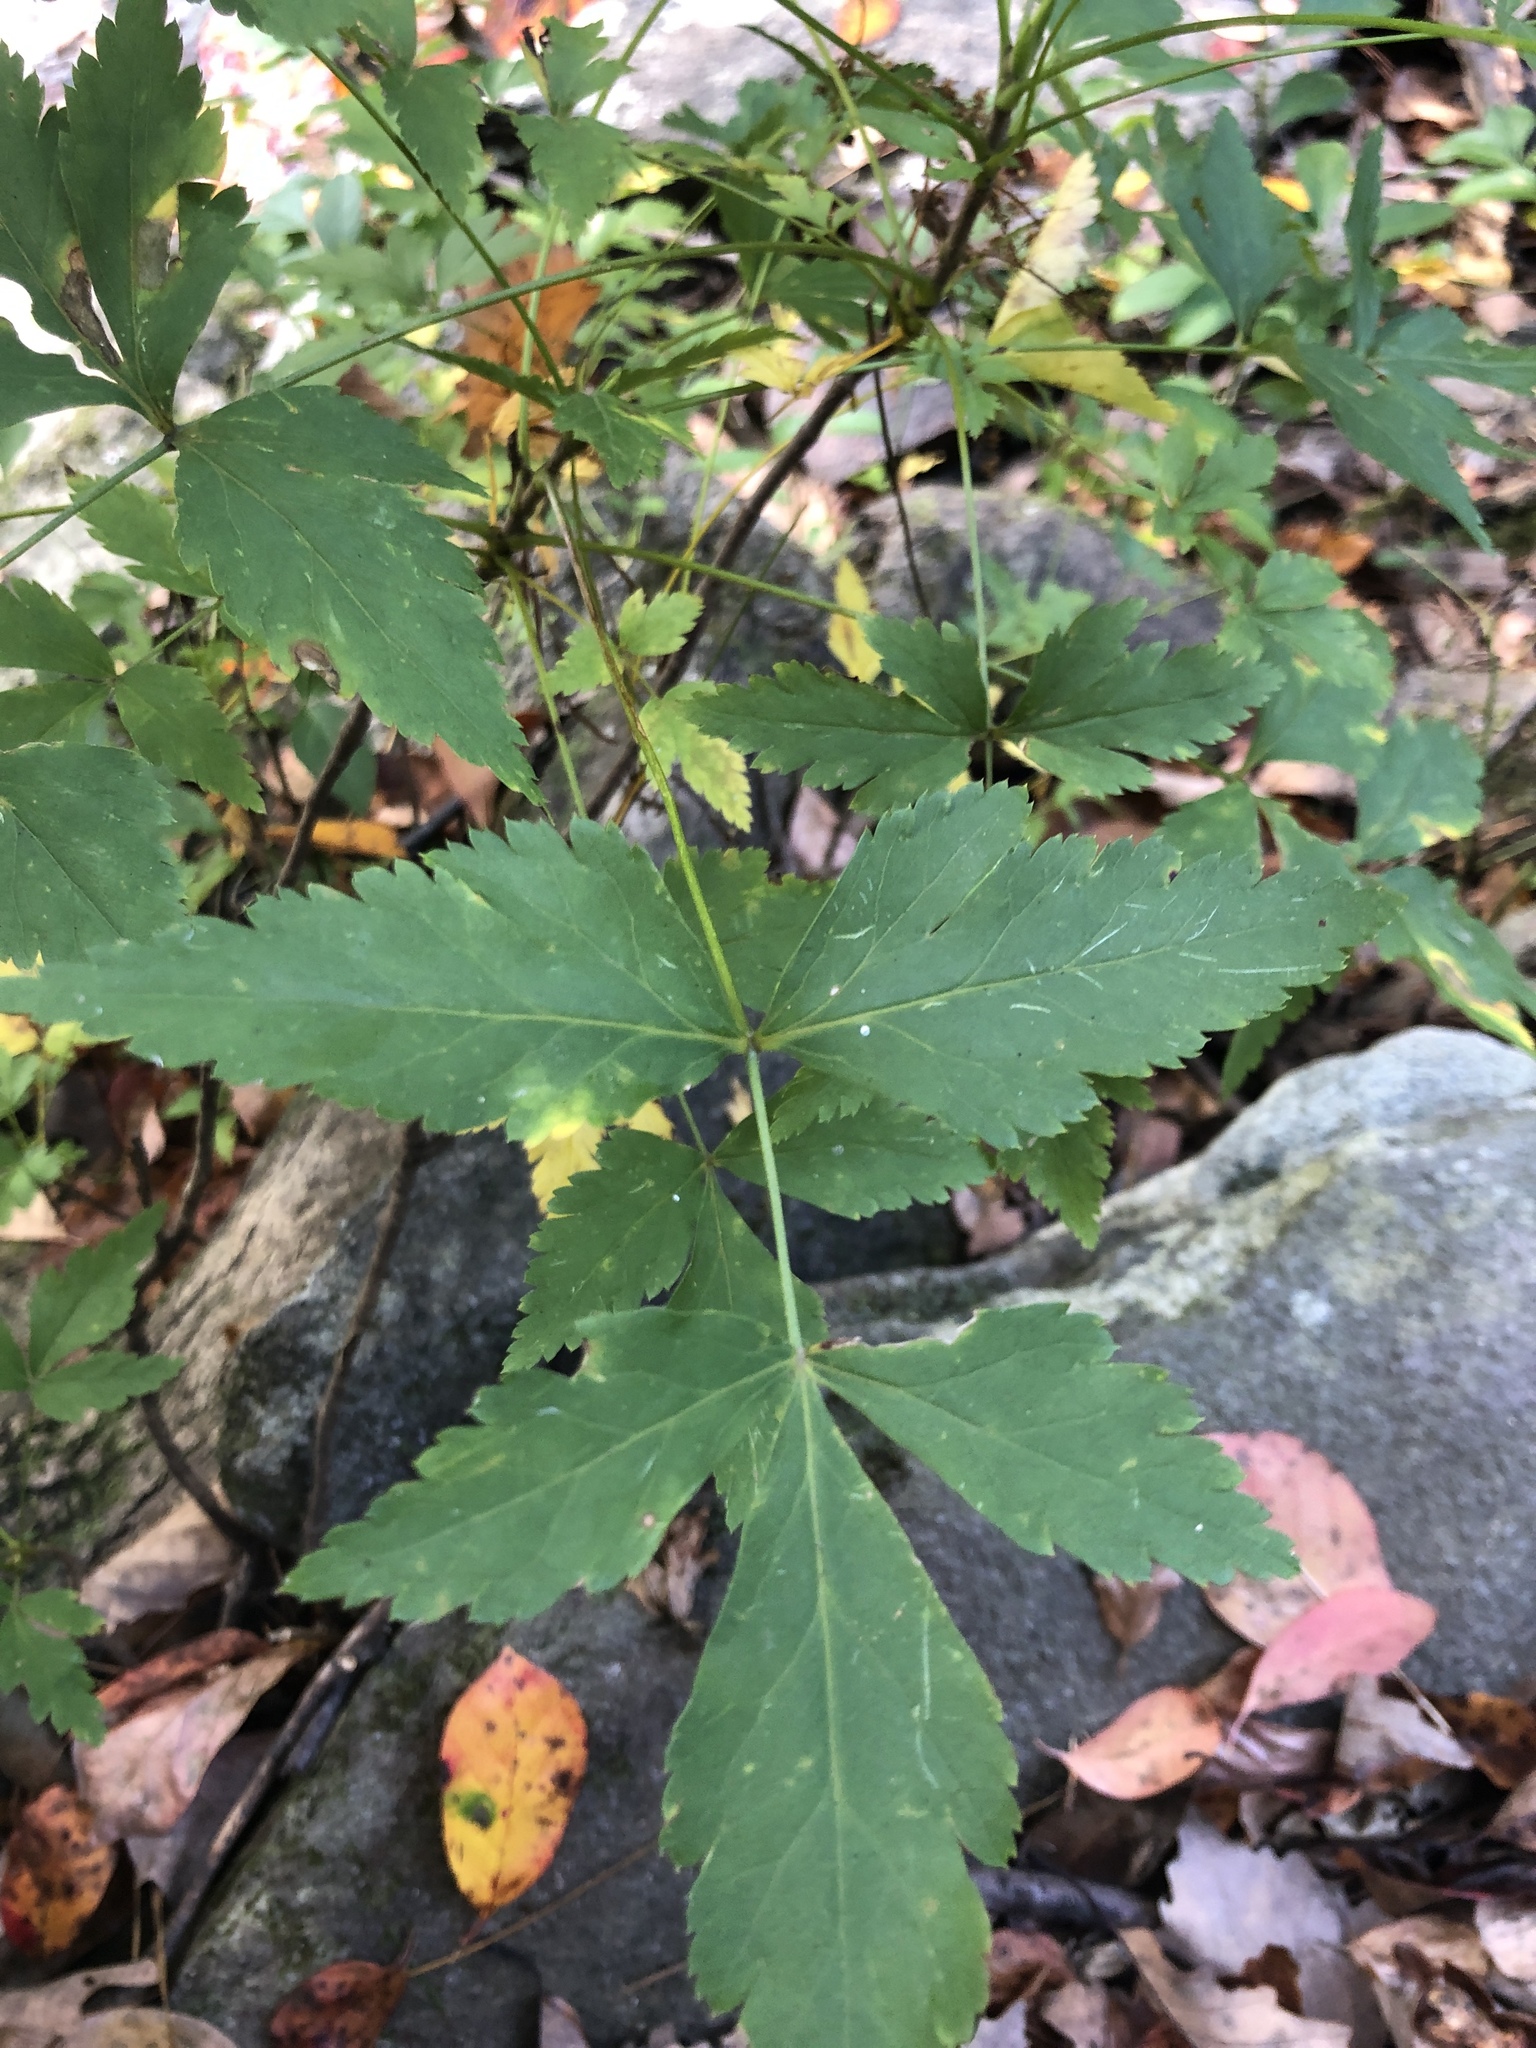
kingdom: Plantae
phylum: Tracheophyta
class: Magnoliopsida
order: Ranunculales
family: Ranunculaceae
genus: Xanthorhiza
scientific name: Xanthorhiza simplicissima
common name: Yellowroot
